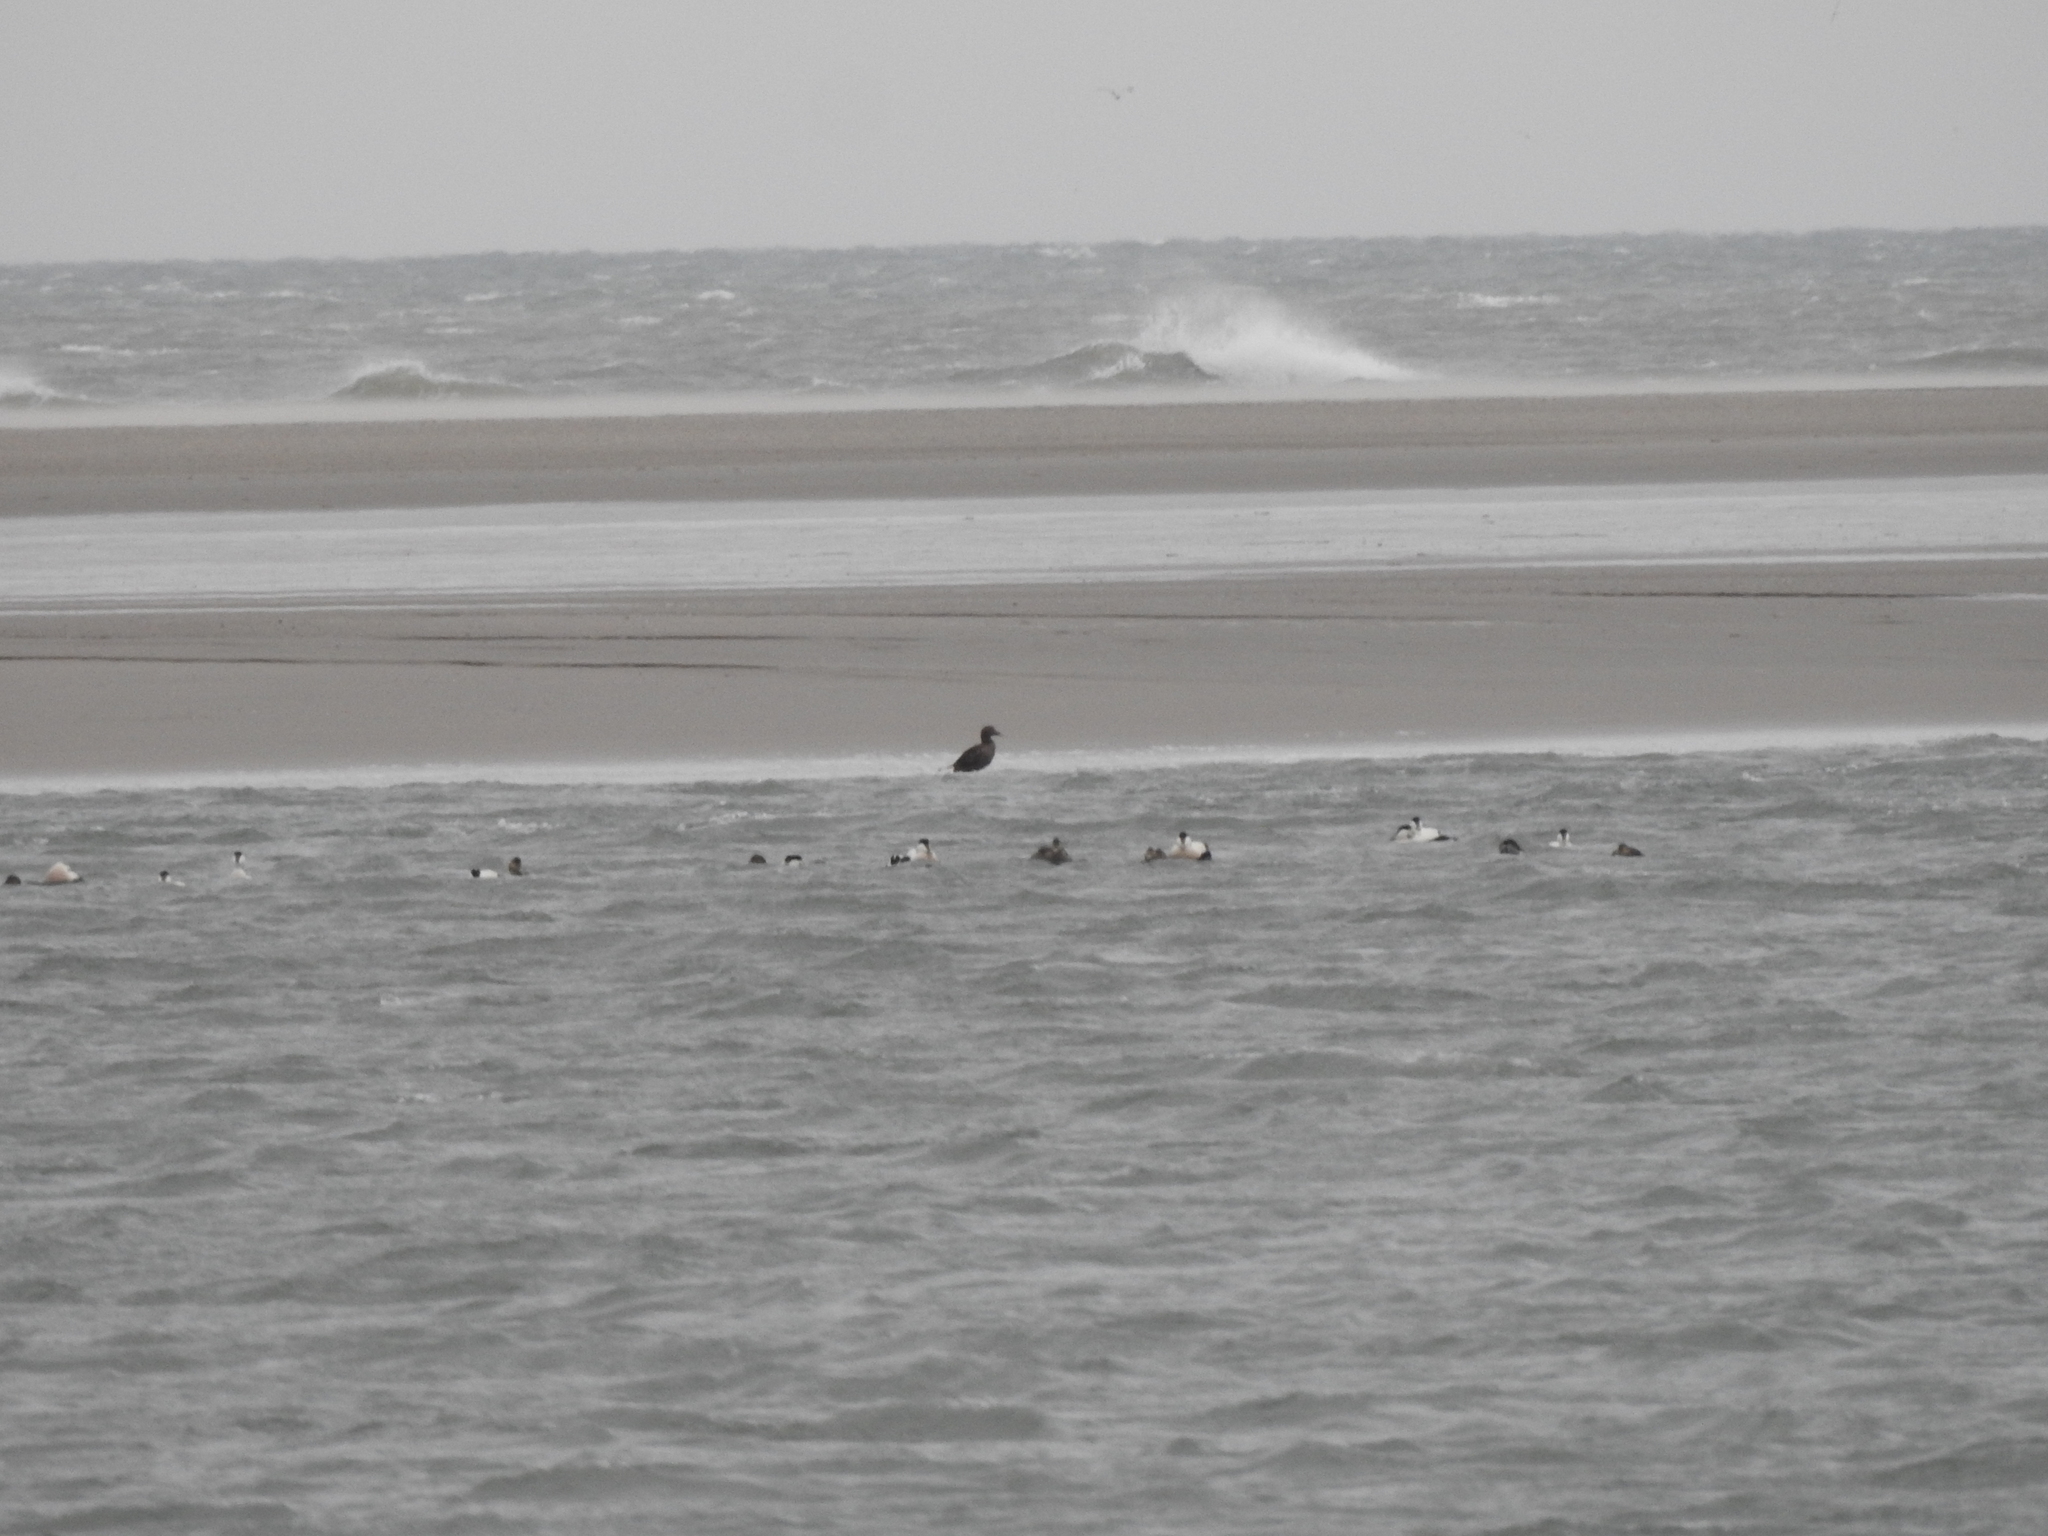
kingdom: Animalia
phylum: Chordata
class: Aves
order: Anseriformes
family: Anatidae
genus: Somateria
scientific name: Somateria mollissima
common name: Common eider
